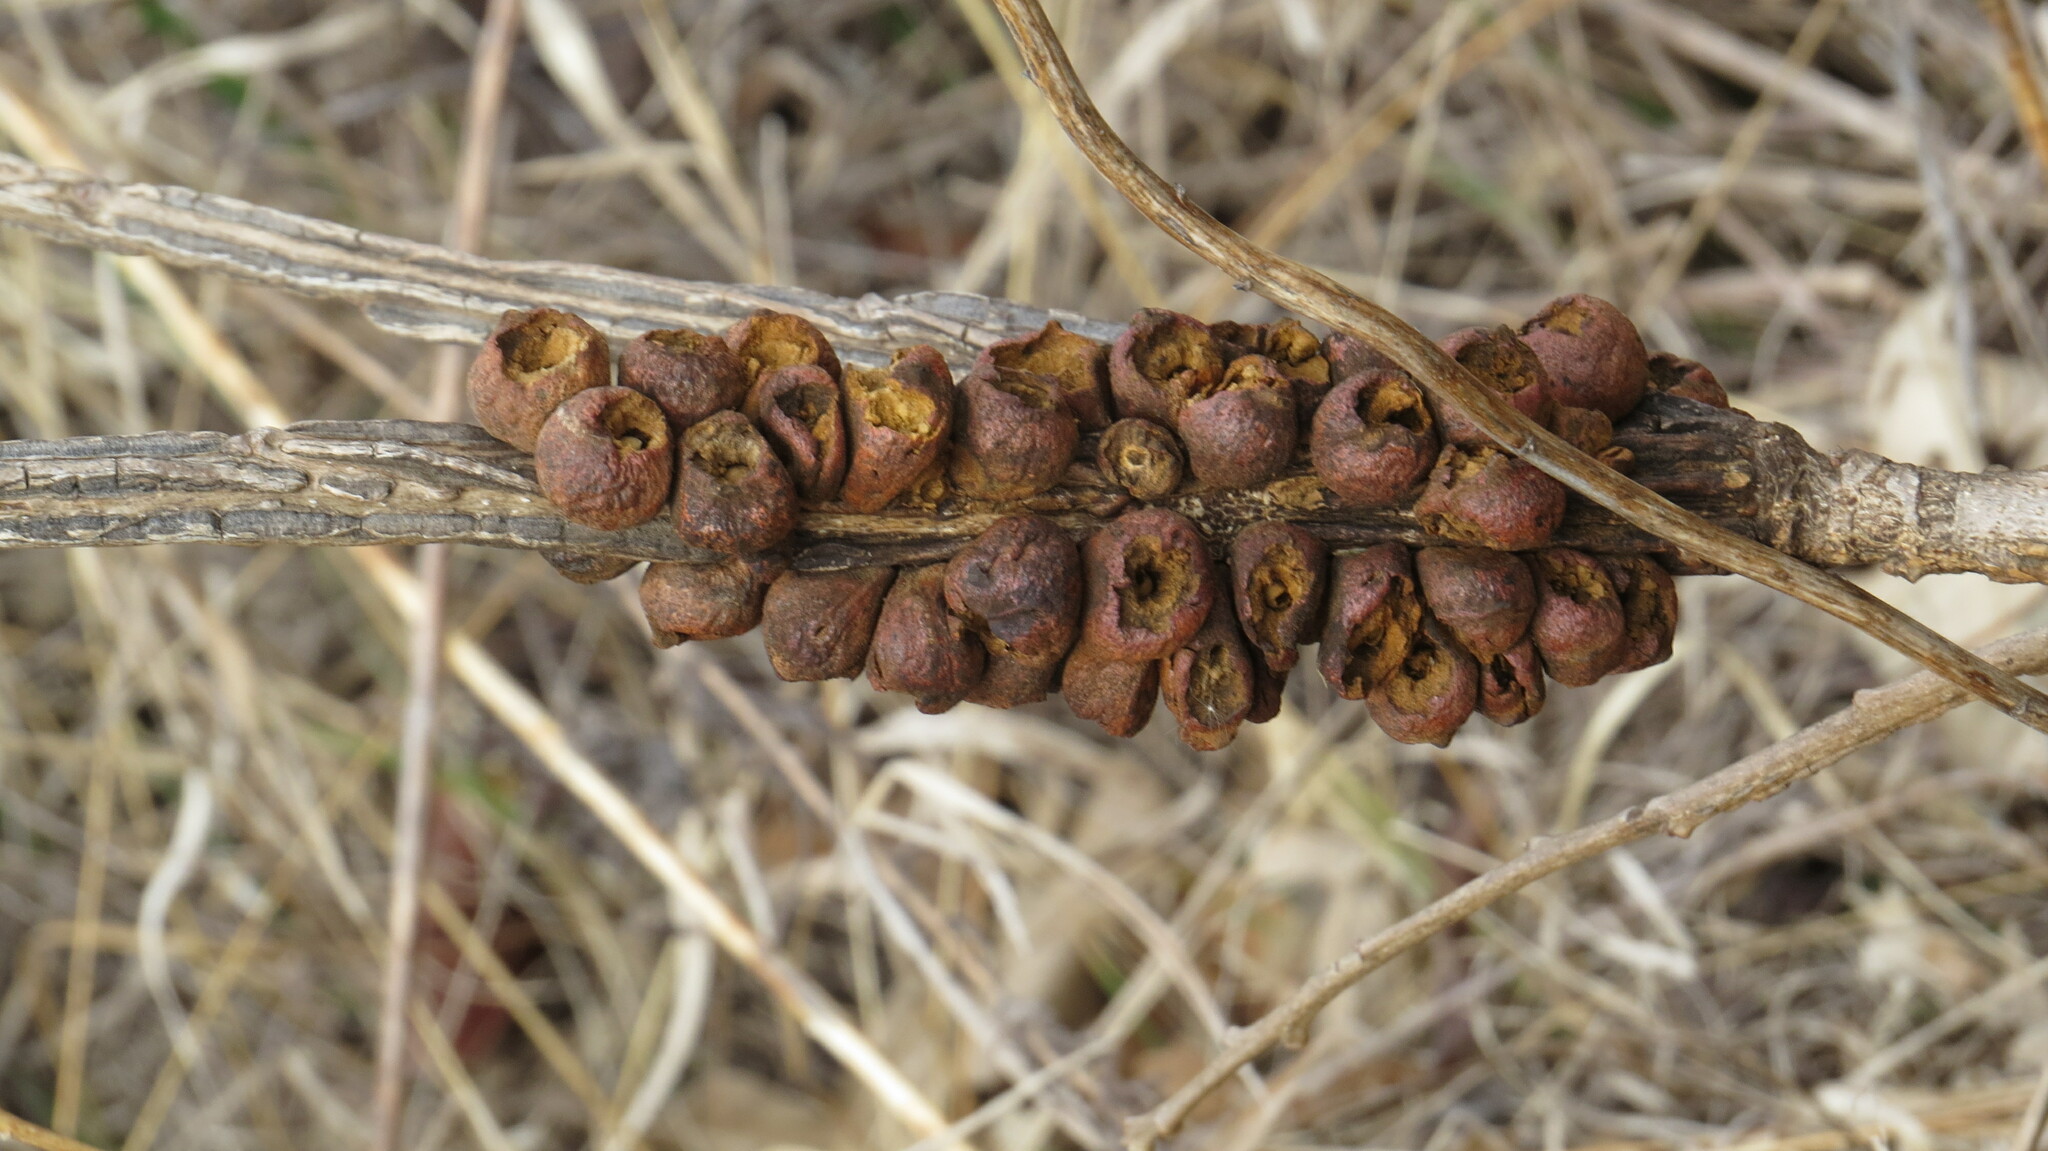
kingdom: Animalia
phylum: Arthropoda
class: Insecta
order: Hymenoptera
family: Cynipidae
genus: Disholcaspis
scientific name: Disholcaspis
